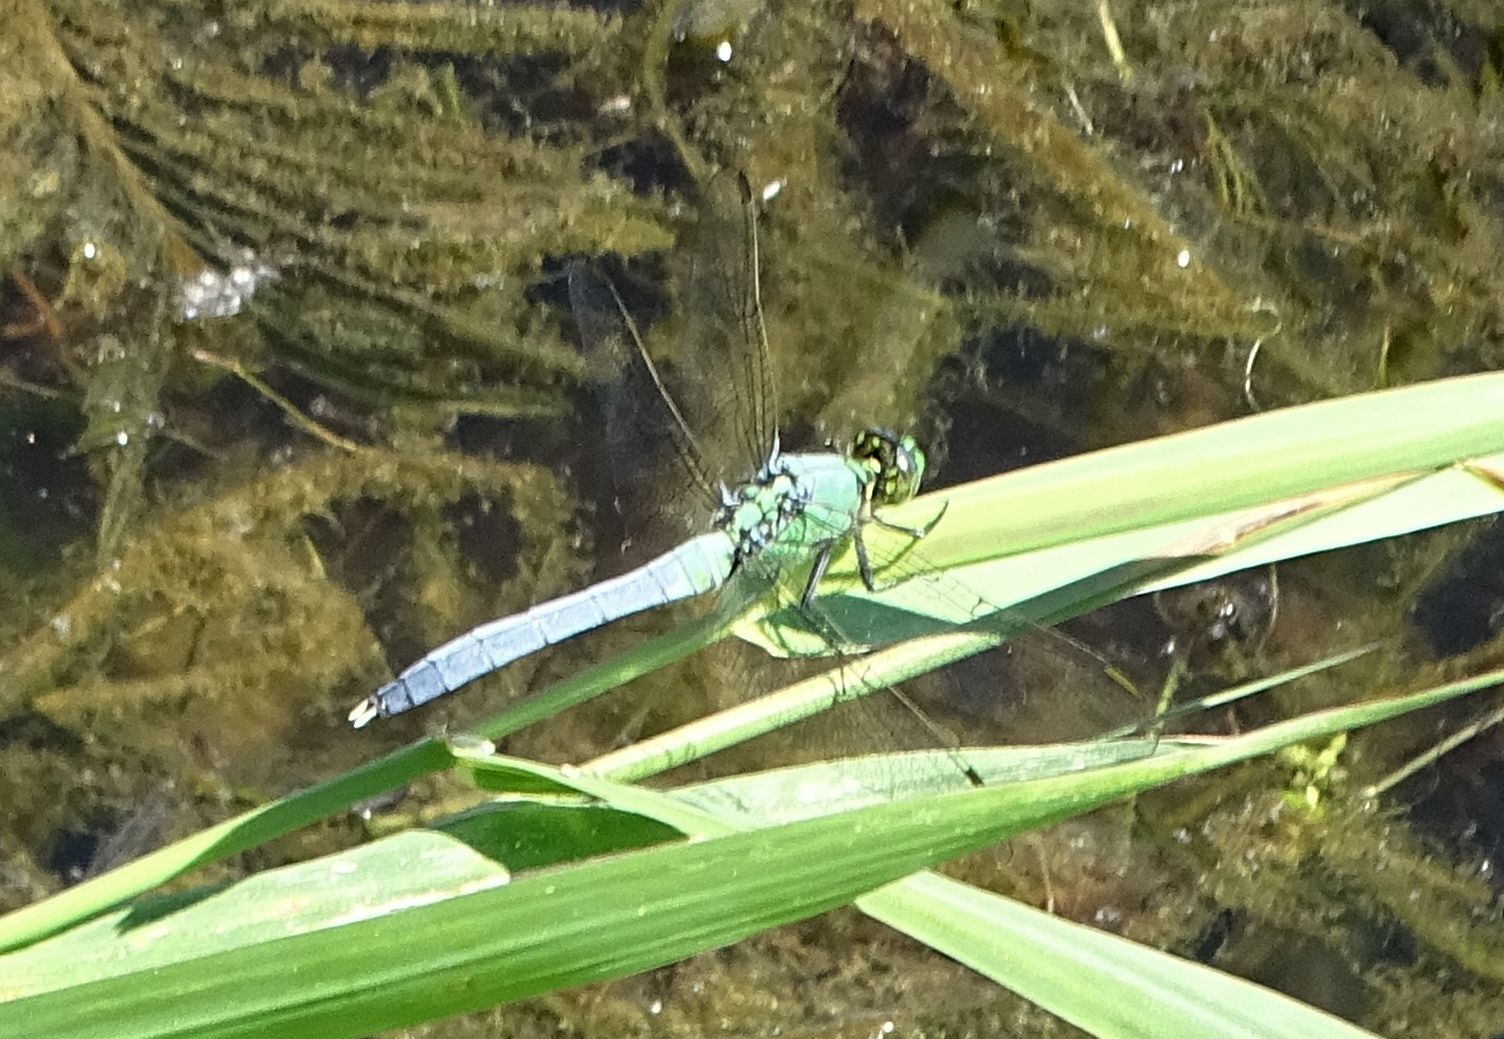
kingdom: Animalia
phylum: Arthropoda
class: Insecta
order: Odonata
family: Libellulidae
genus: Erythemis
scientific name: Erythemis simplicicollis
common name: Eastern pondhawk
